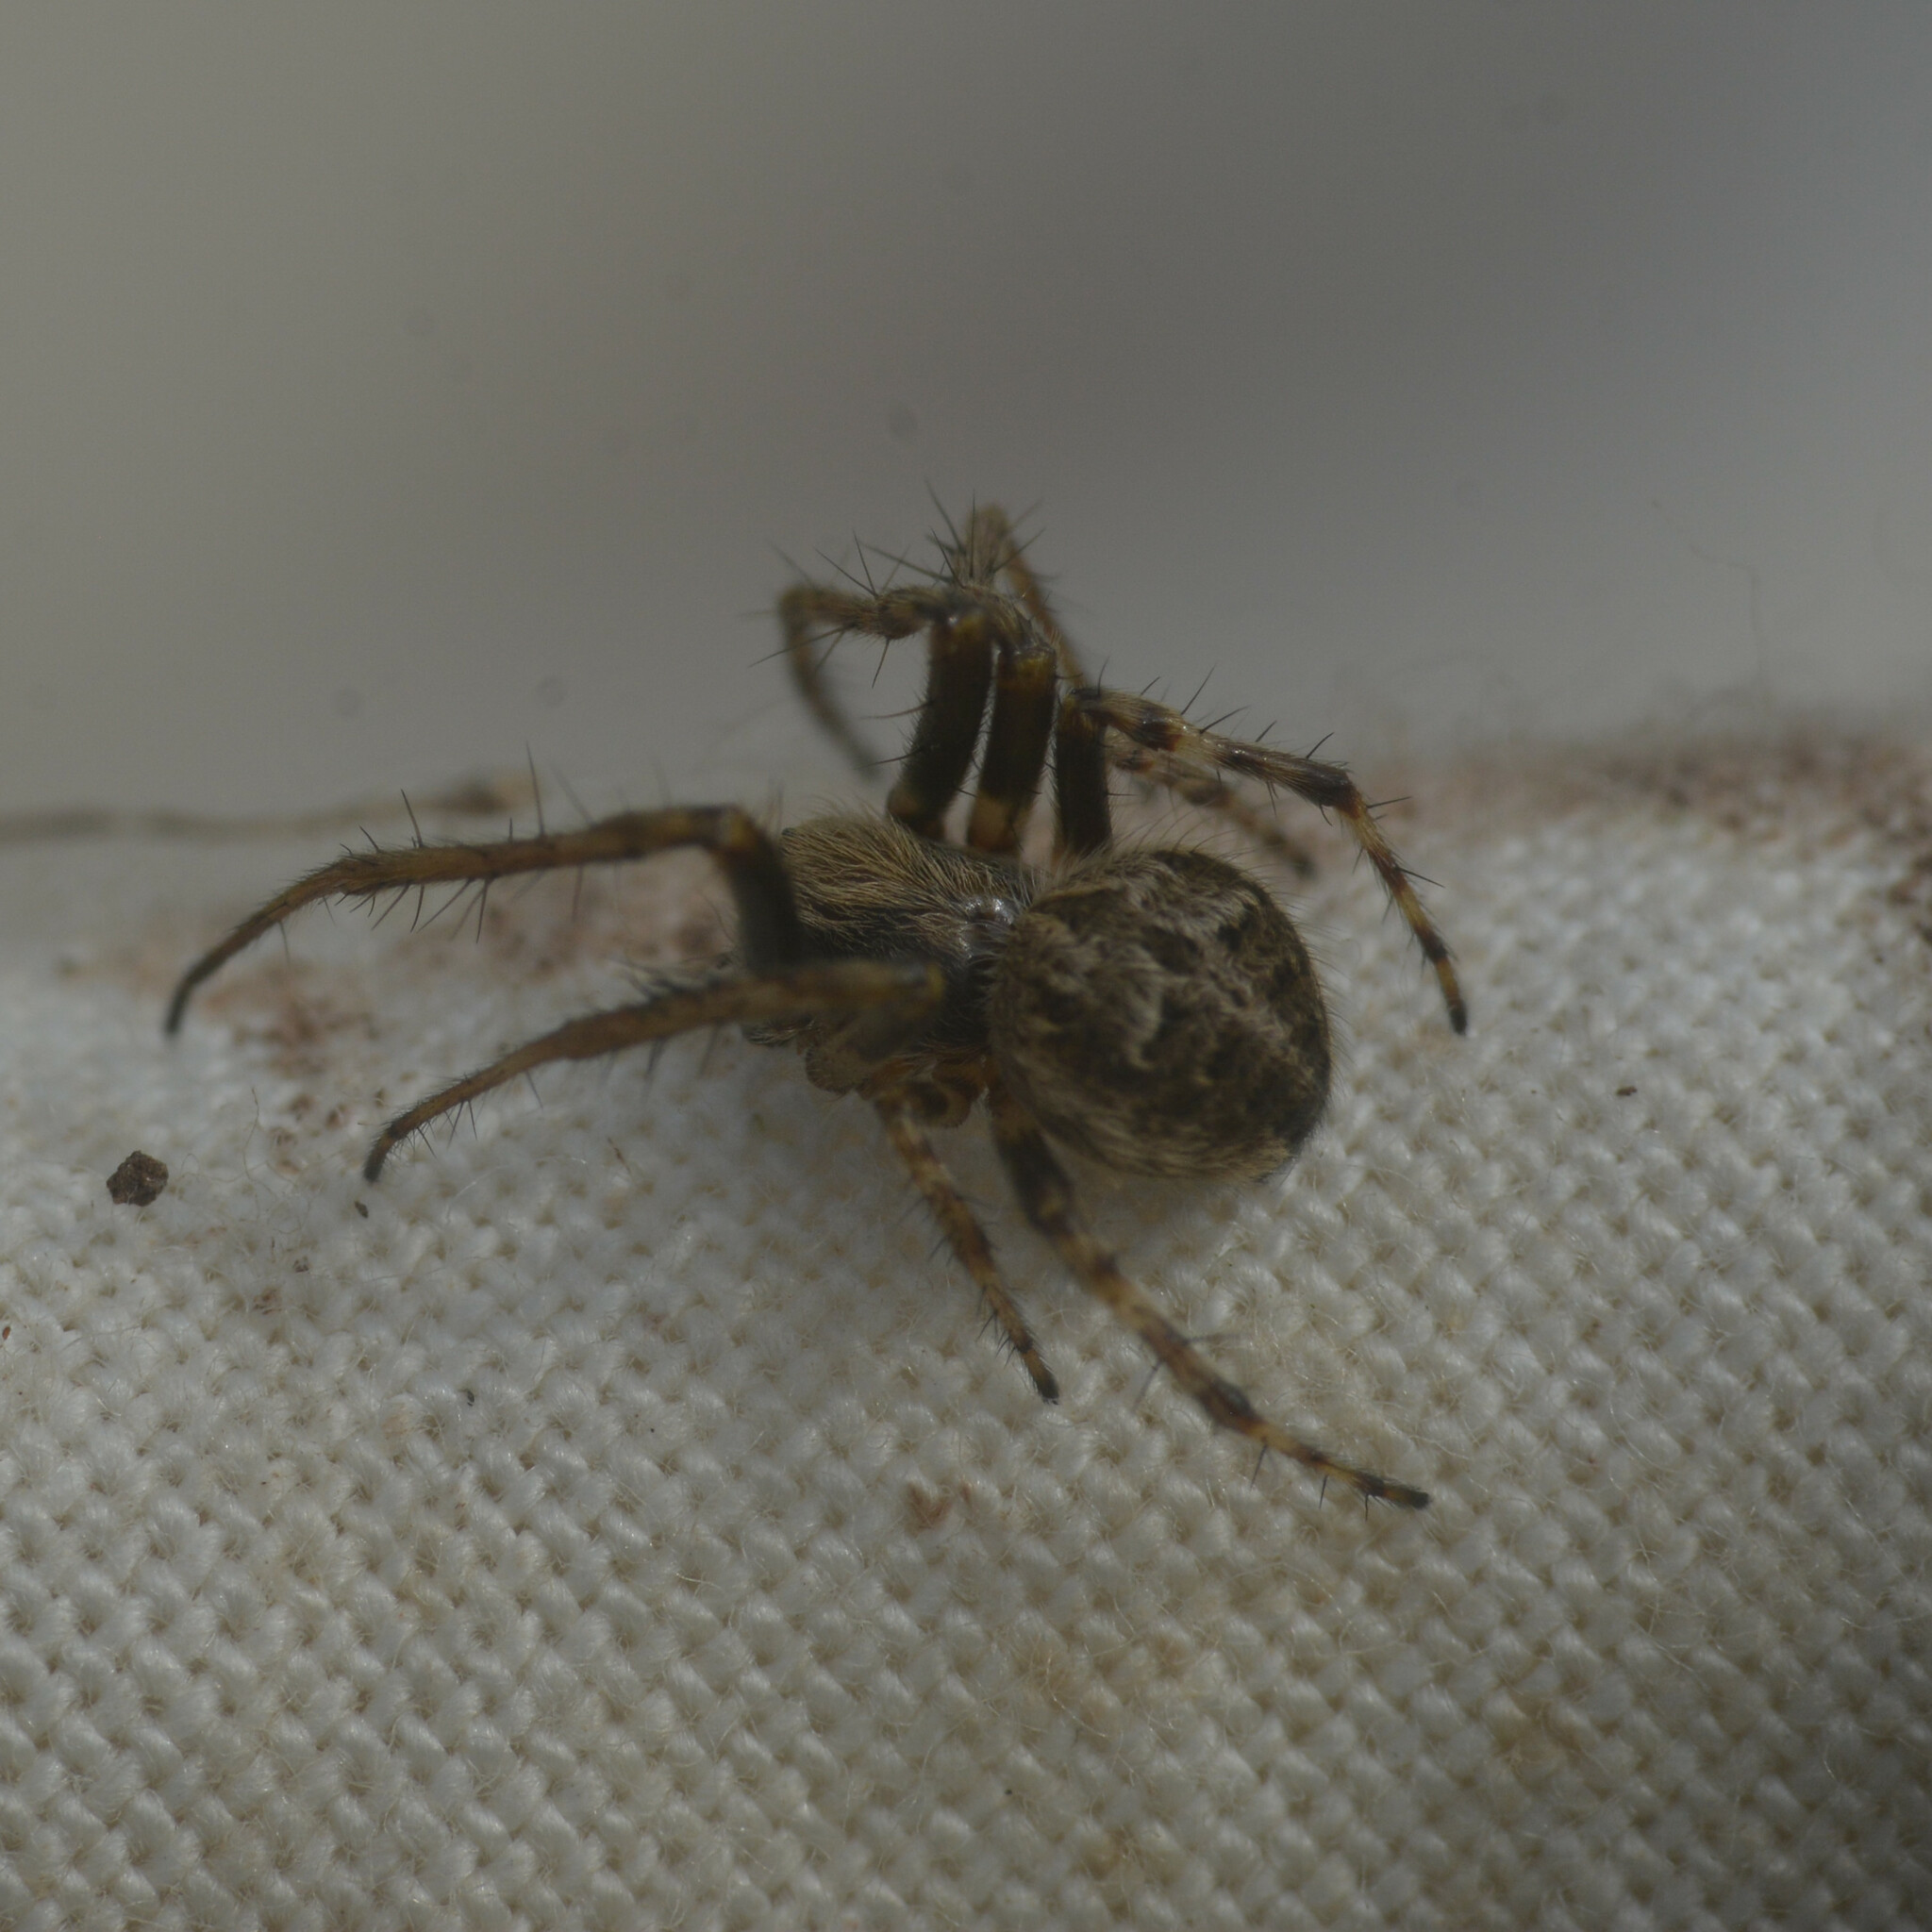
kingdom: Animalia
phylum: Arthropoda
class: Arachnida
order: Araneae
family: Araneidae
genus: Agalenatea
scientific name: Agalenatea redii
